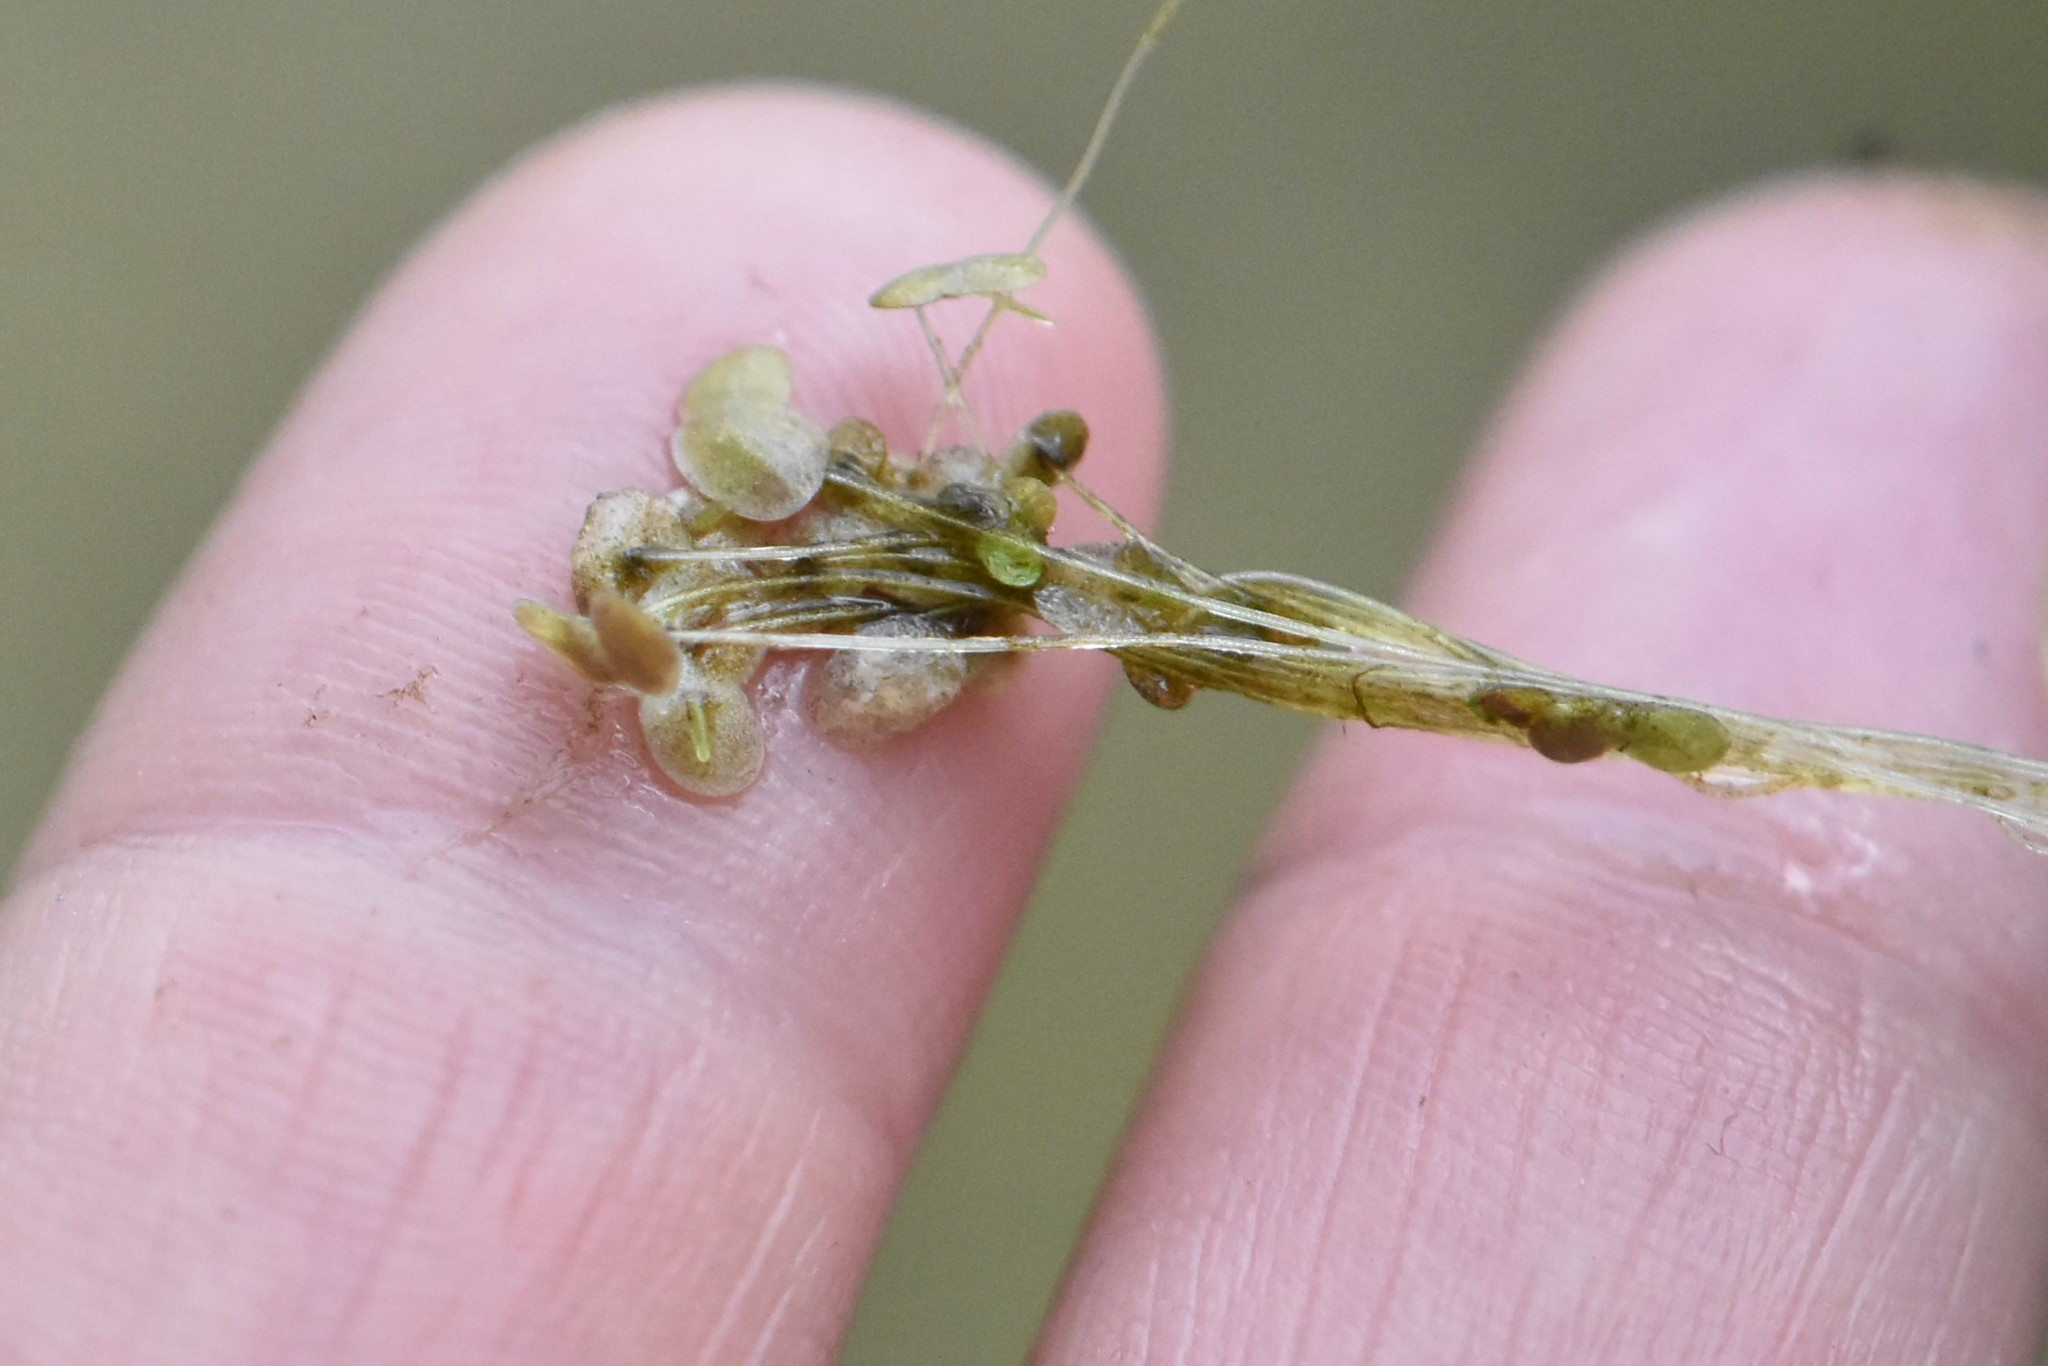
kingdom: Plantae
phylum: Tracheophyta
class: Liliopsida
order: Alismatales
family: Araceae
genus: Lemna
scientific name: Lemna turionifera
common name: Perennial duckweed
